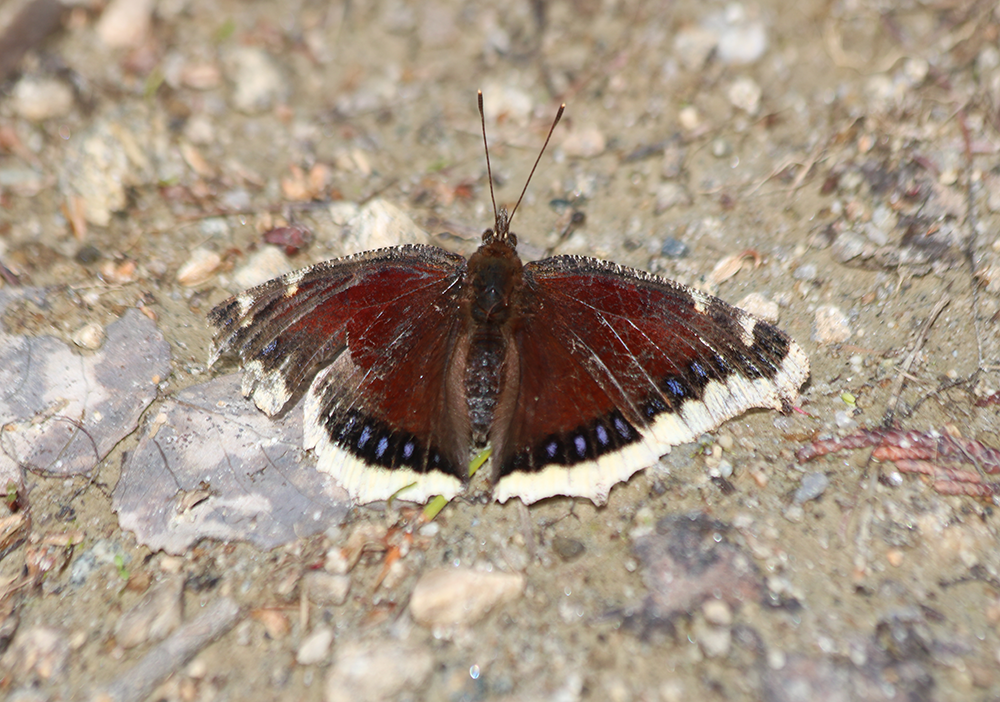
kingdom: Animalia
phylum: Arthropoda
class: Insecta
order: Lepidoptera
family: Nymphalidae
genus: Nymphalis
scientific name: Nymphalis antiopa
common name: Camberwell beauty
